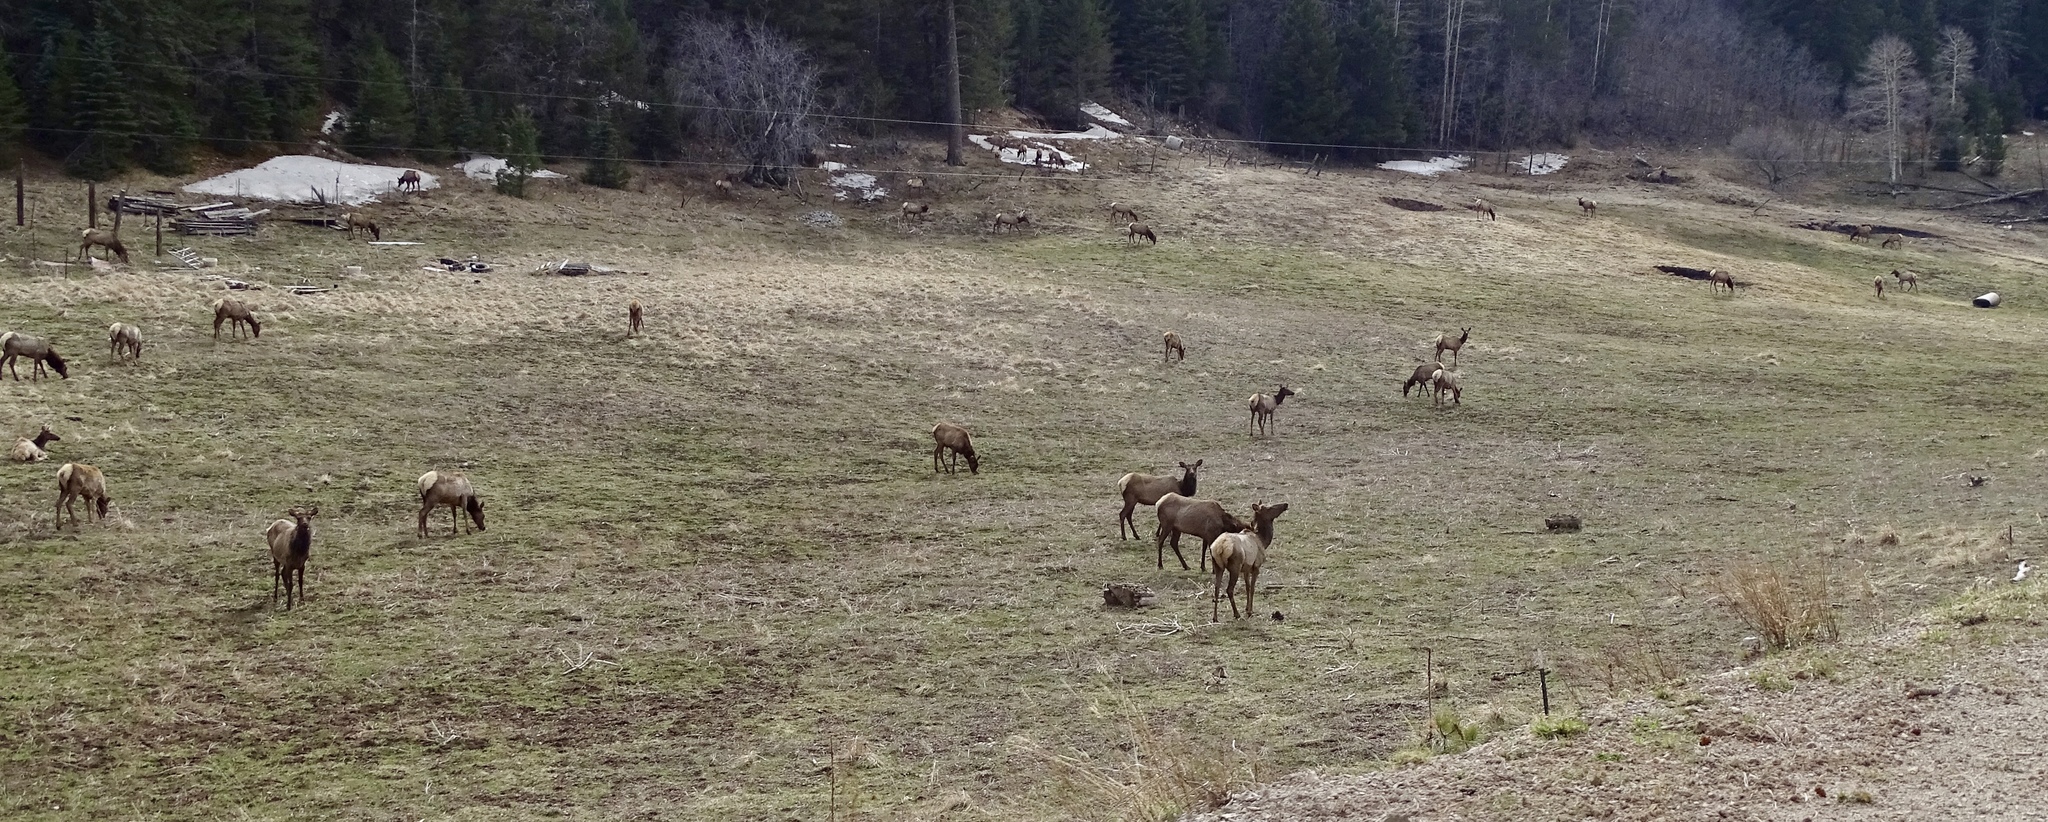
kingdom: Animalia
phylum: Chordata
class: Mammalia
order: Artiodactyla
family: Cervidae
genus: Cervus
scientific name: Cervus elaphus
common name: Red deer
